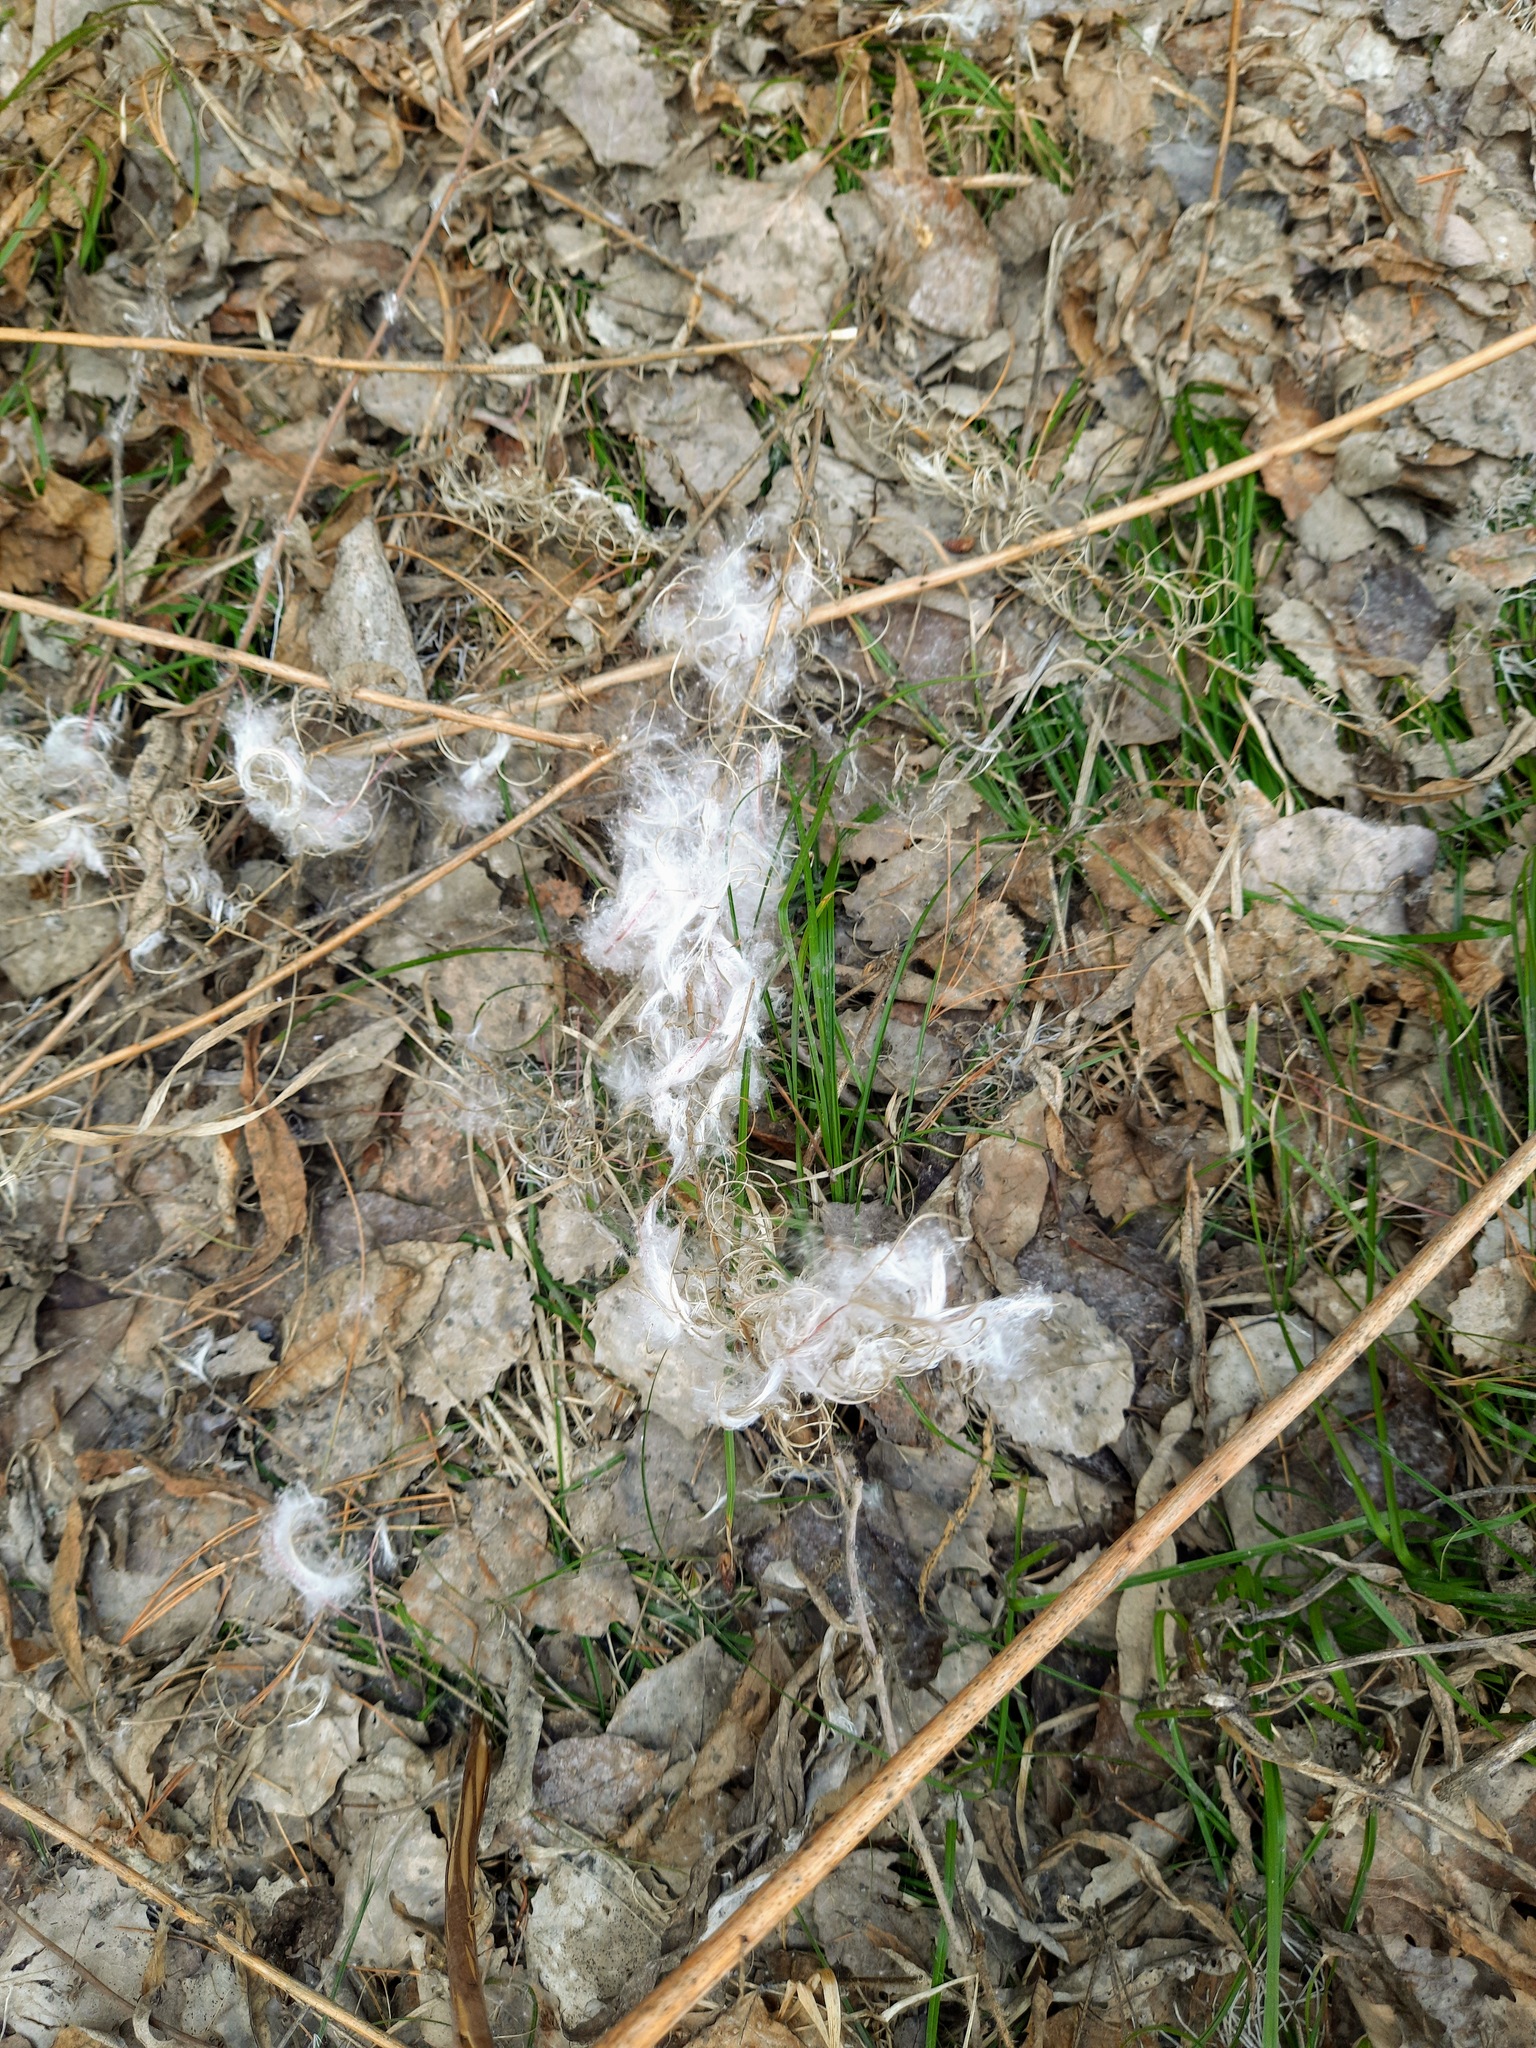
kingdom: Plantae
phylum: Tracheophyta
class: Magnoliopsida
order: Myrtales
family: Onagraceae
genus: Chamaenerion
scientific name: Chamaenerion angustifolium
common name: Fireweed
